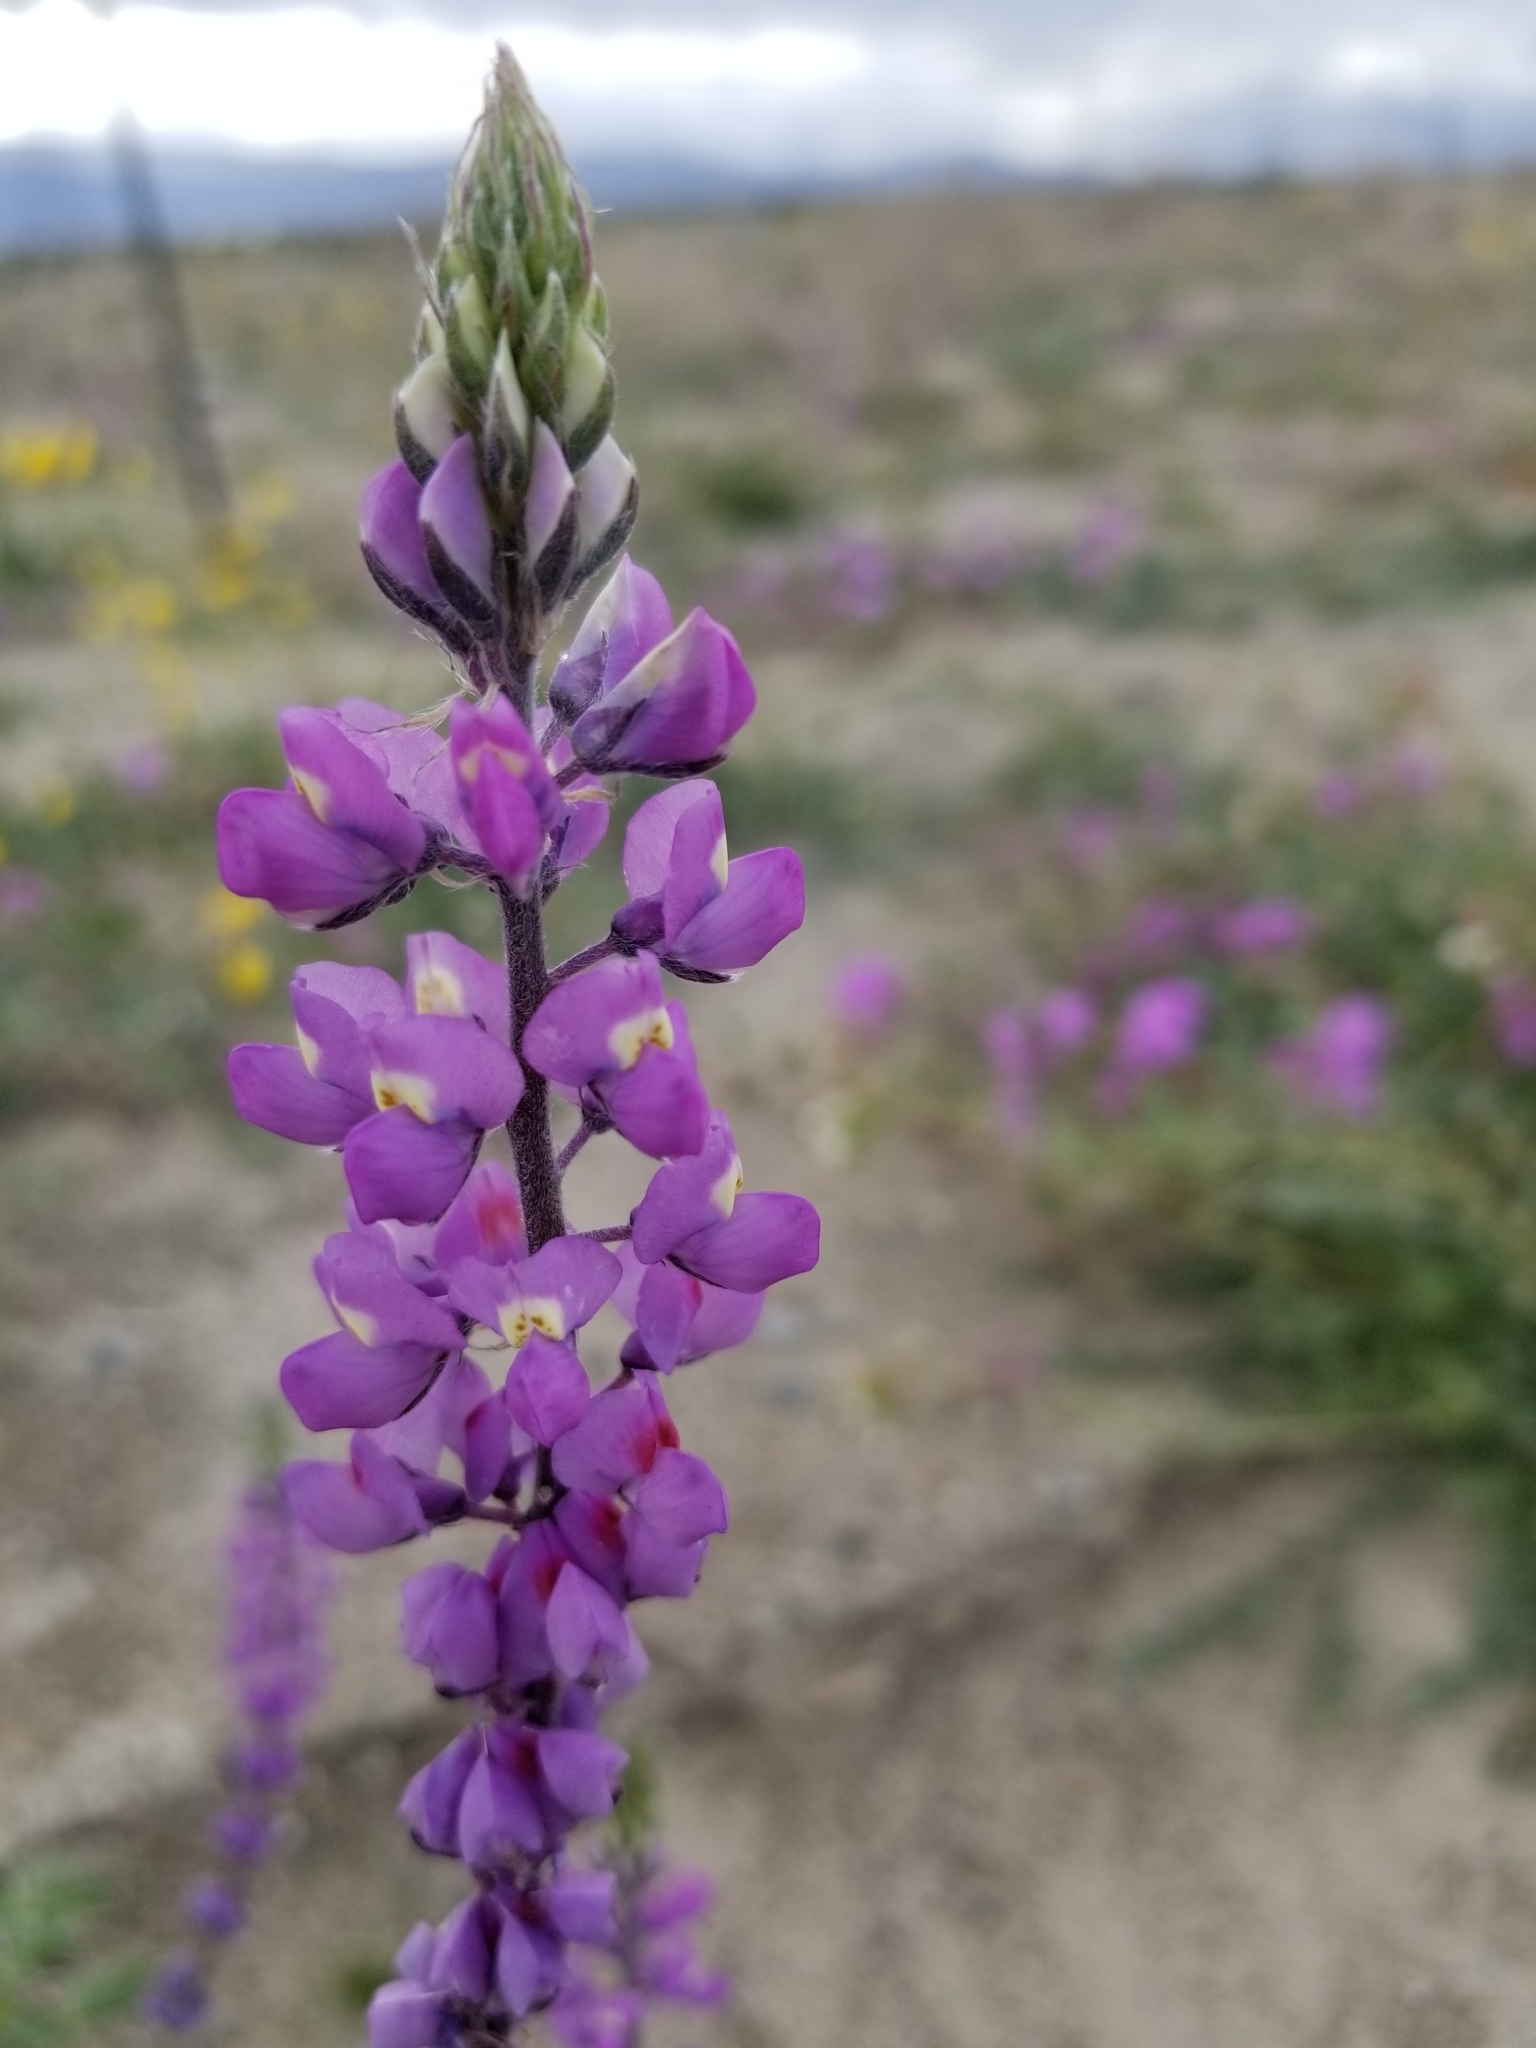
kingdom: Plantae
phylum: Tracheophyta
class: Magnoliopsida
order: Fabales
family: Fabaceae
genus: Lupinus
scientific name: Lupinus arizonicus
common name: Arizona lupine
